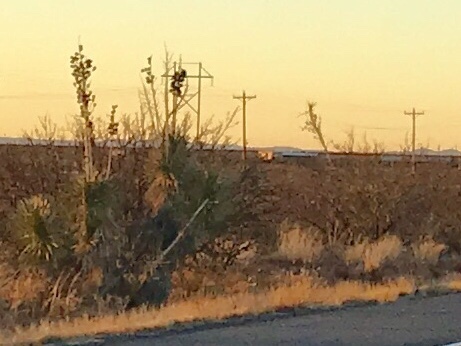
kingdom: Plantae
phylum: Tracheophyta
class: Liliopsida
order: Asparagales
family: Asparagaceae
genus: Yucca
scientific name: Yucca elata
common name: Palmella
